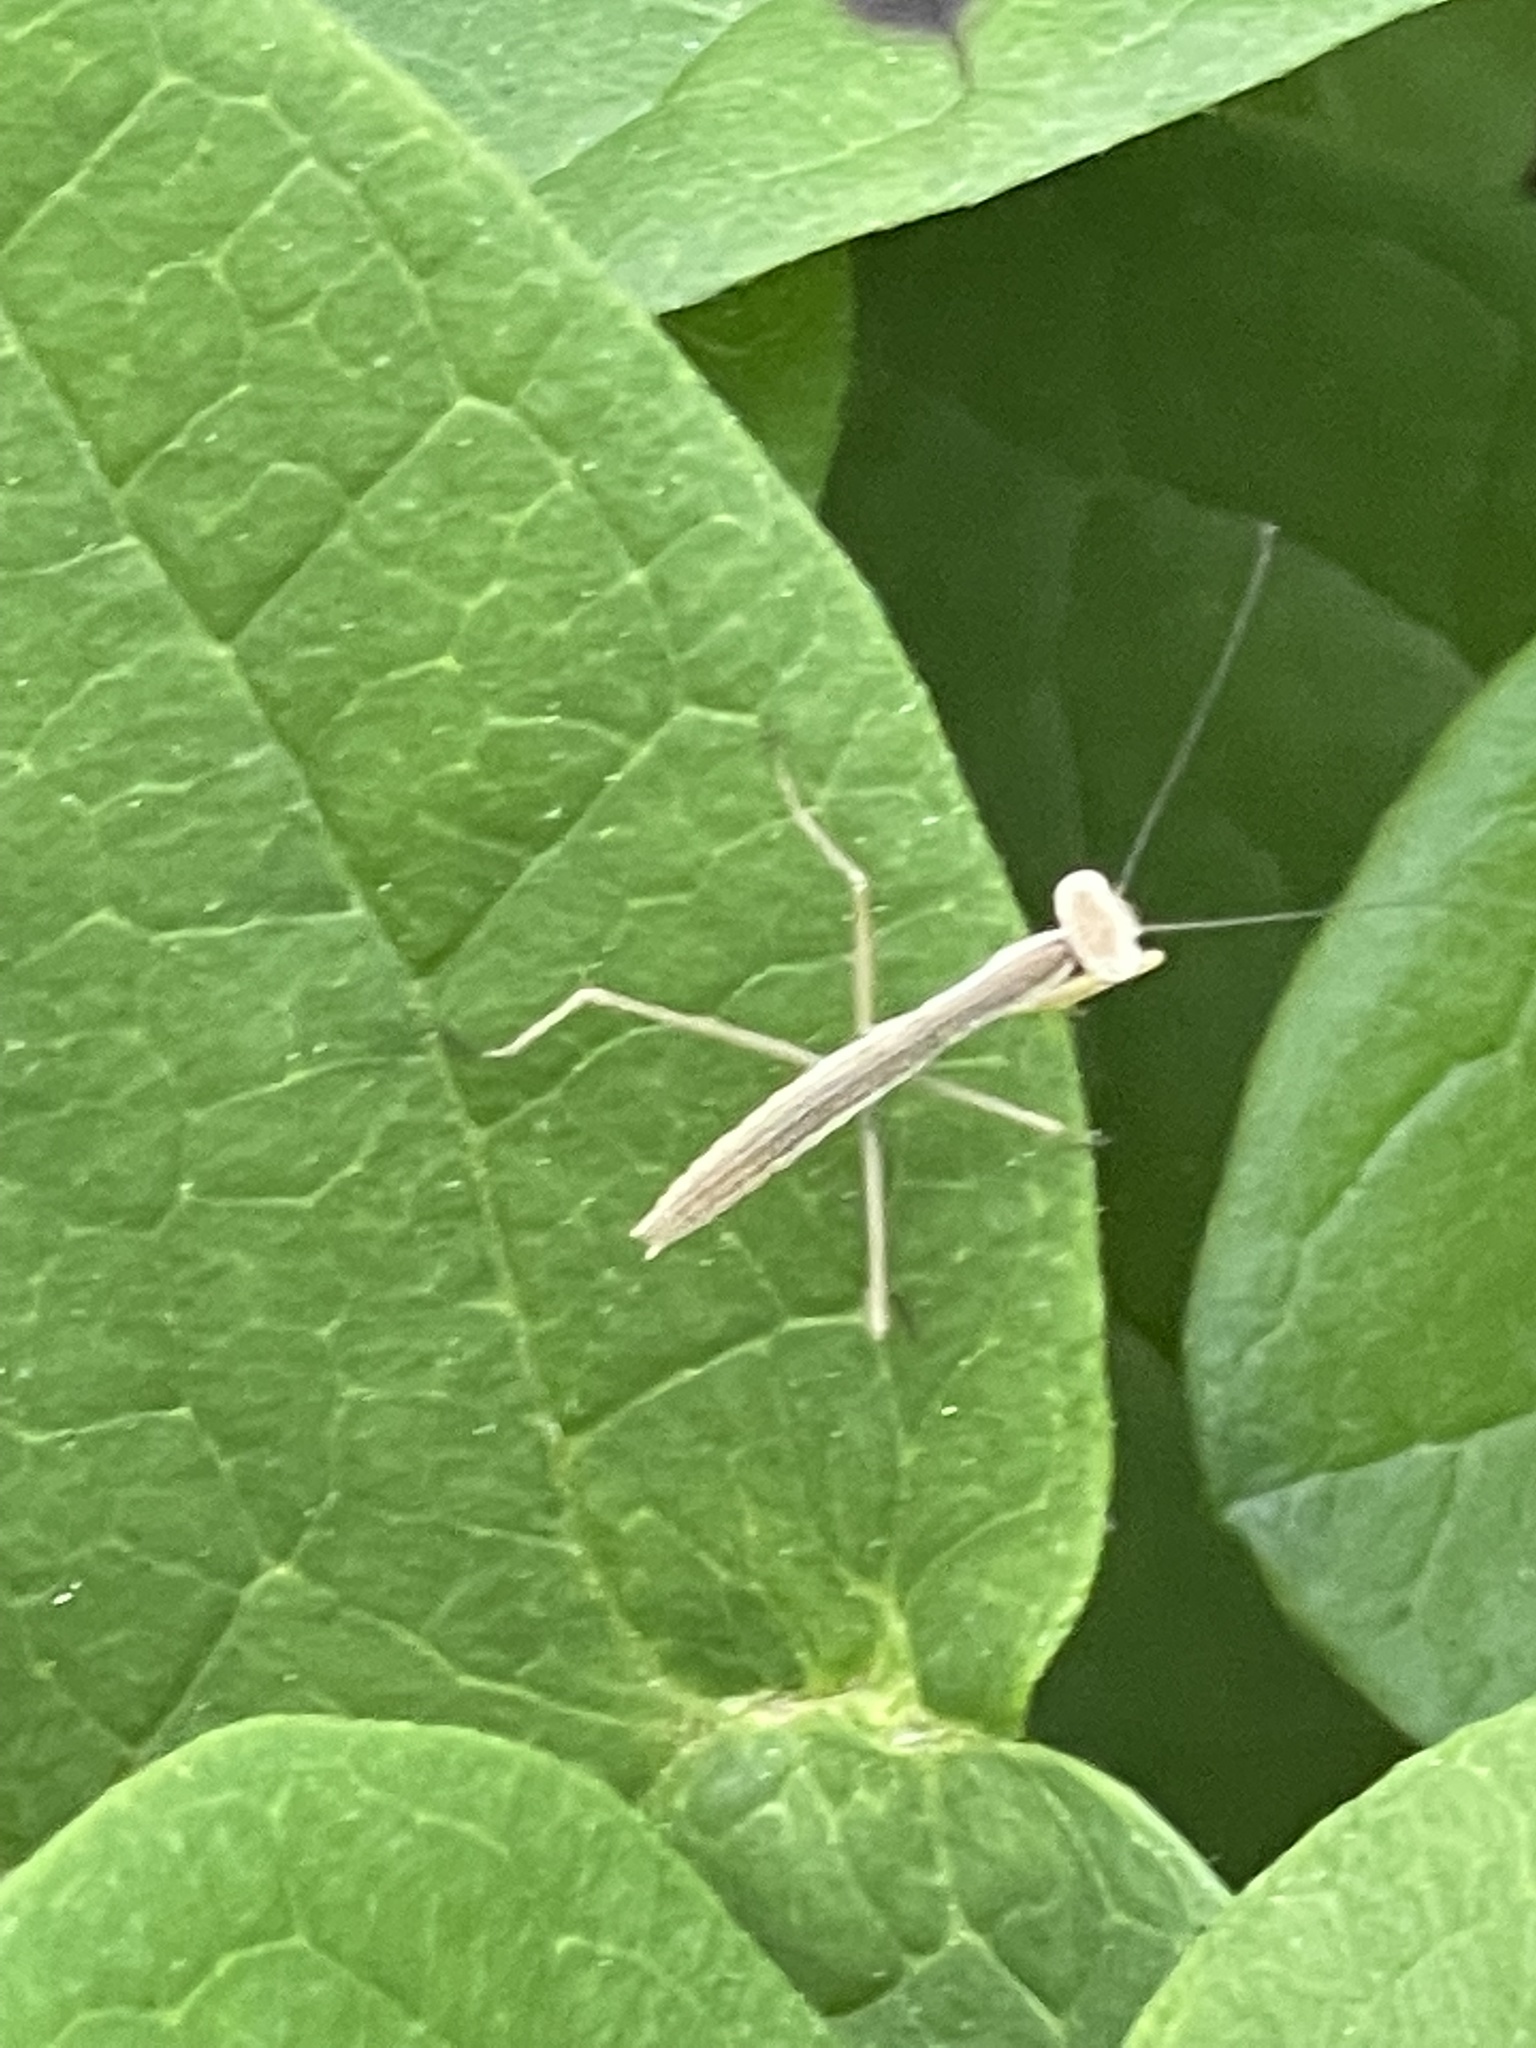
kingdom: Animalia
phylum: Arthropoda
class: Insecta
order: Mantodea
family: Mantidae
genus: Tenodera
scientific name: Tenodera sinensis
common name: Chinese mantis
